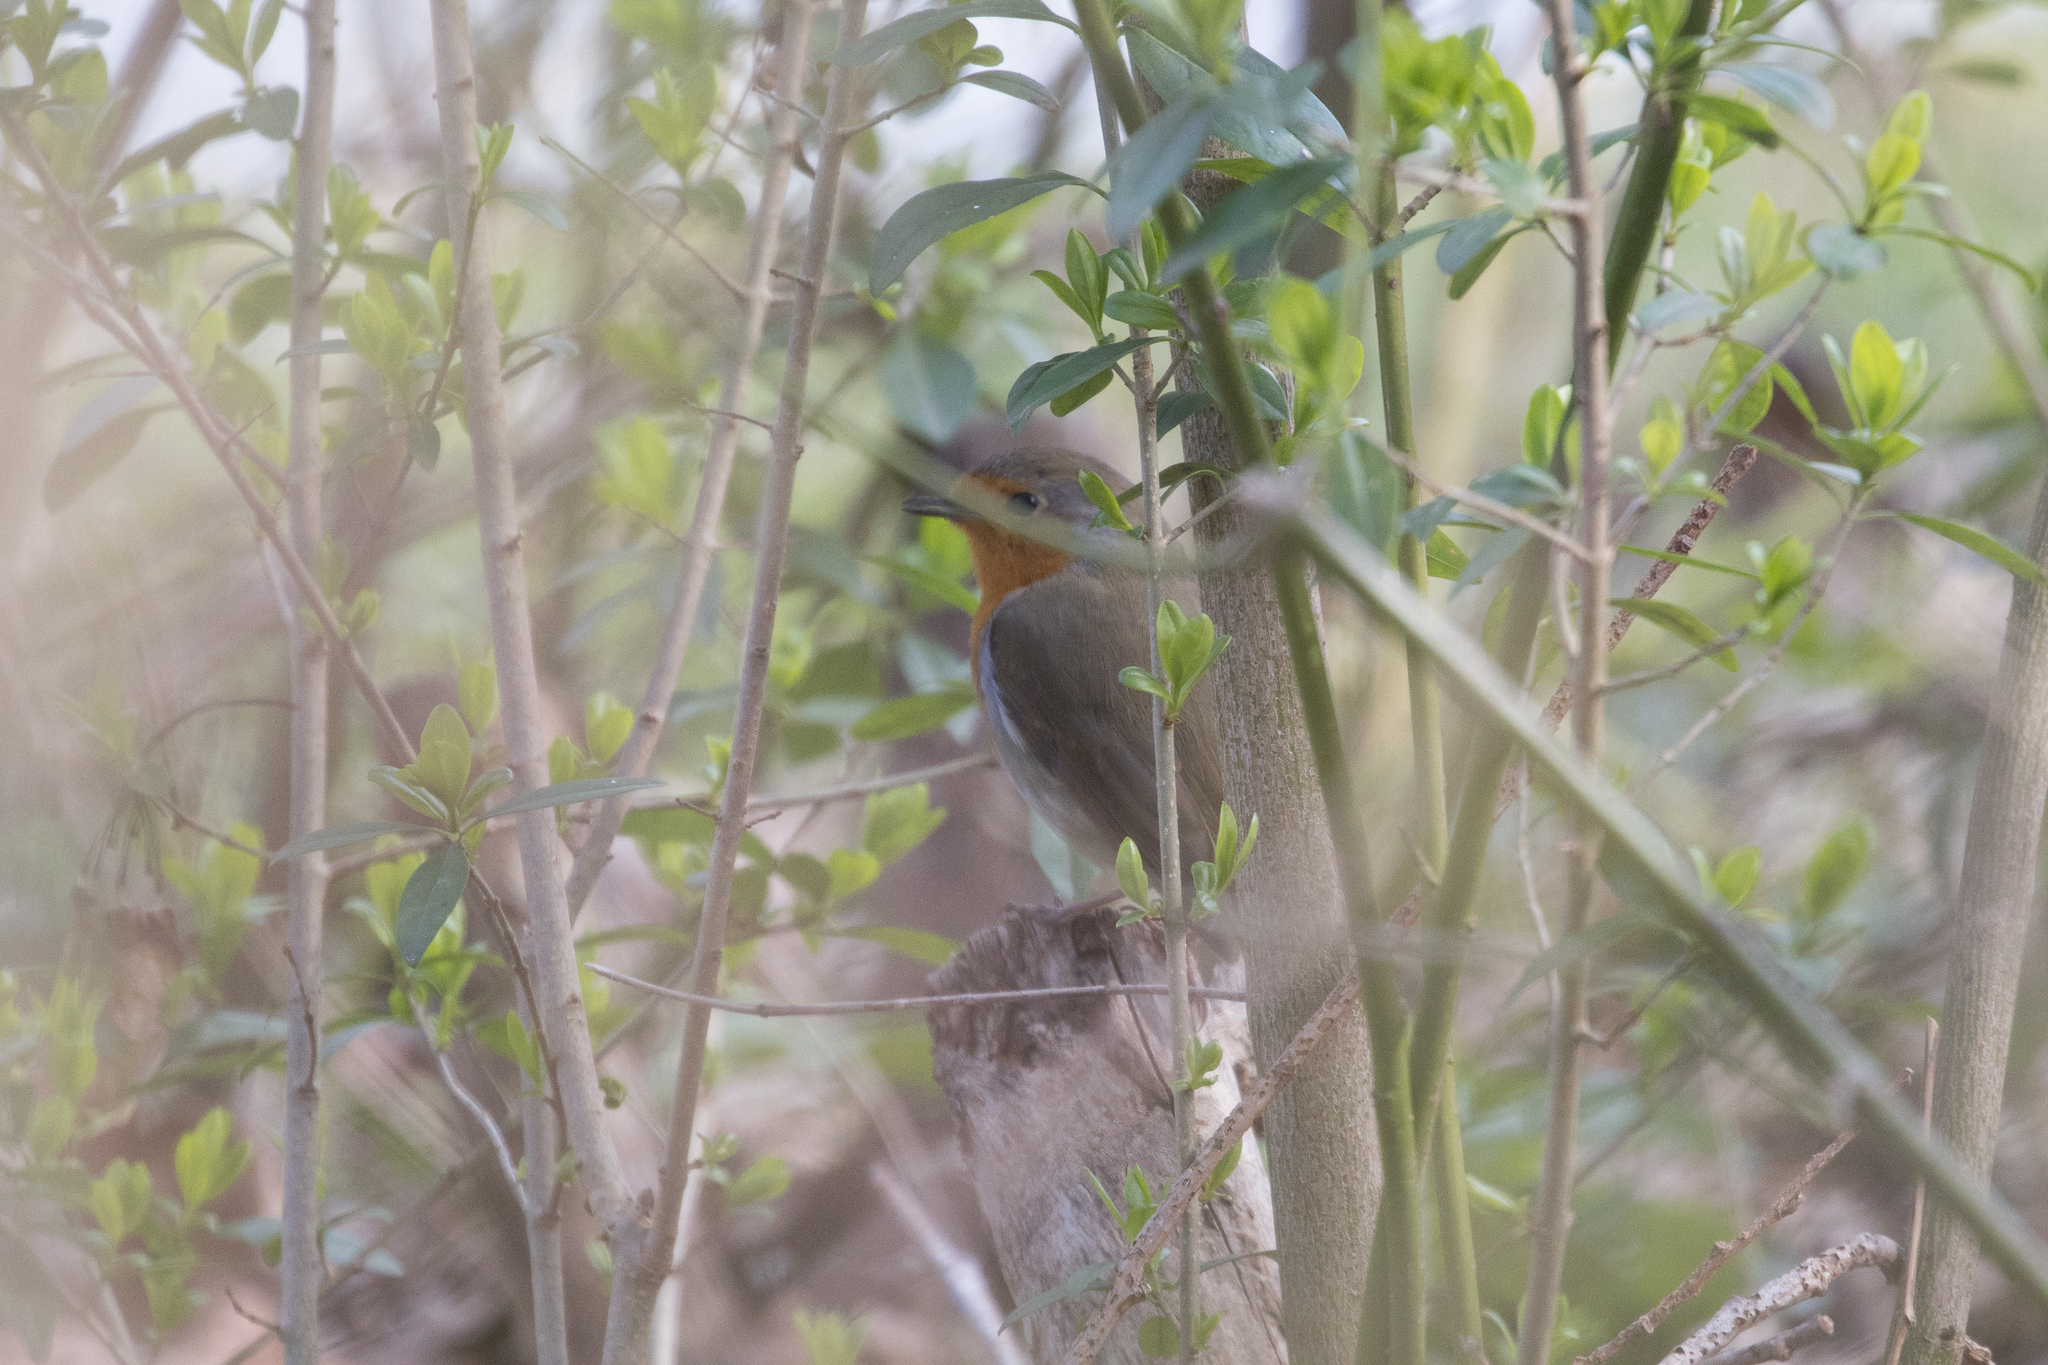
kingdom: Animalia
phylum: Chordata
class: Aves
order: Passeriformes
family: Muscicapidae
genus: Erithacus
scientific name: Erithacus rubecula
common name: European robin
